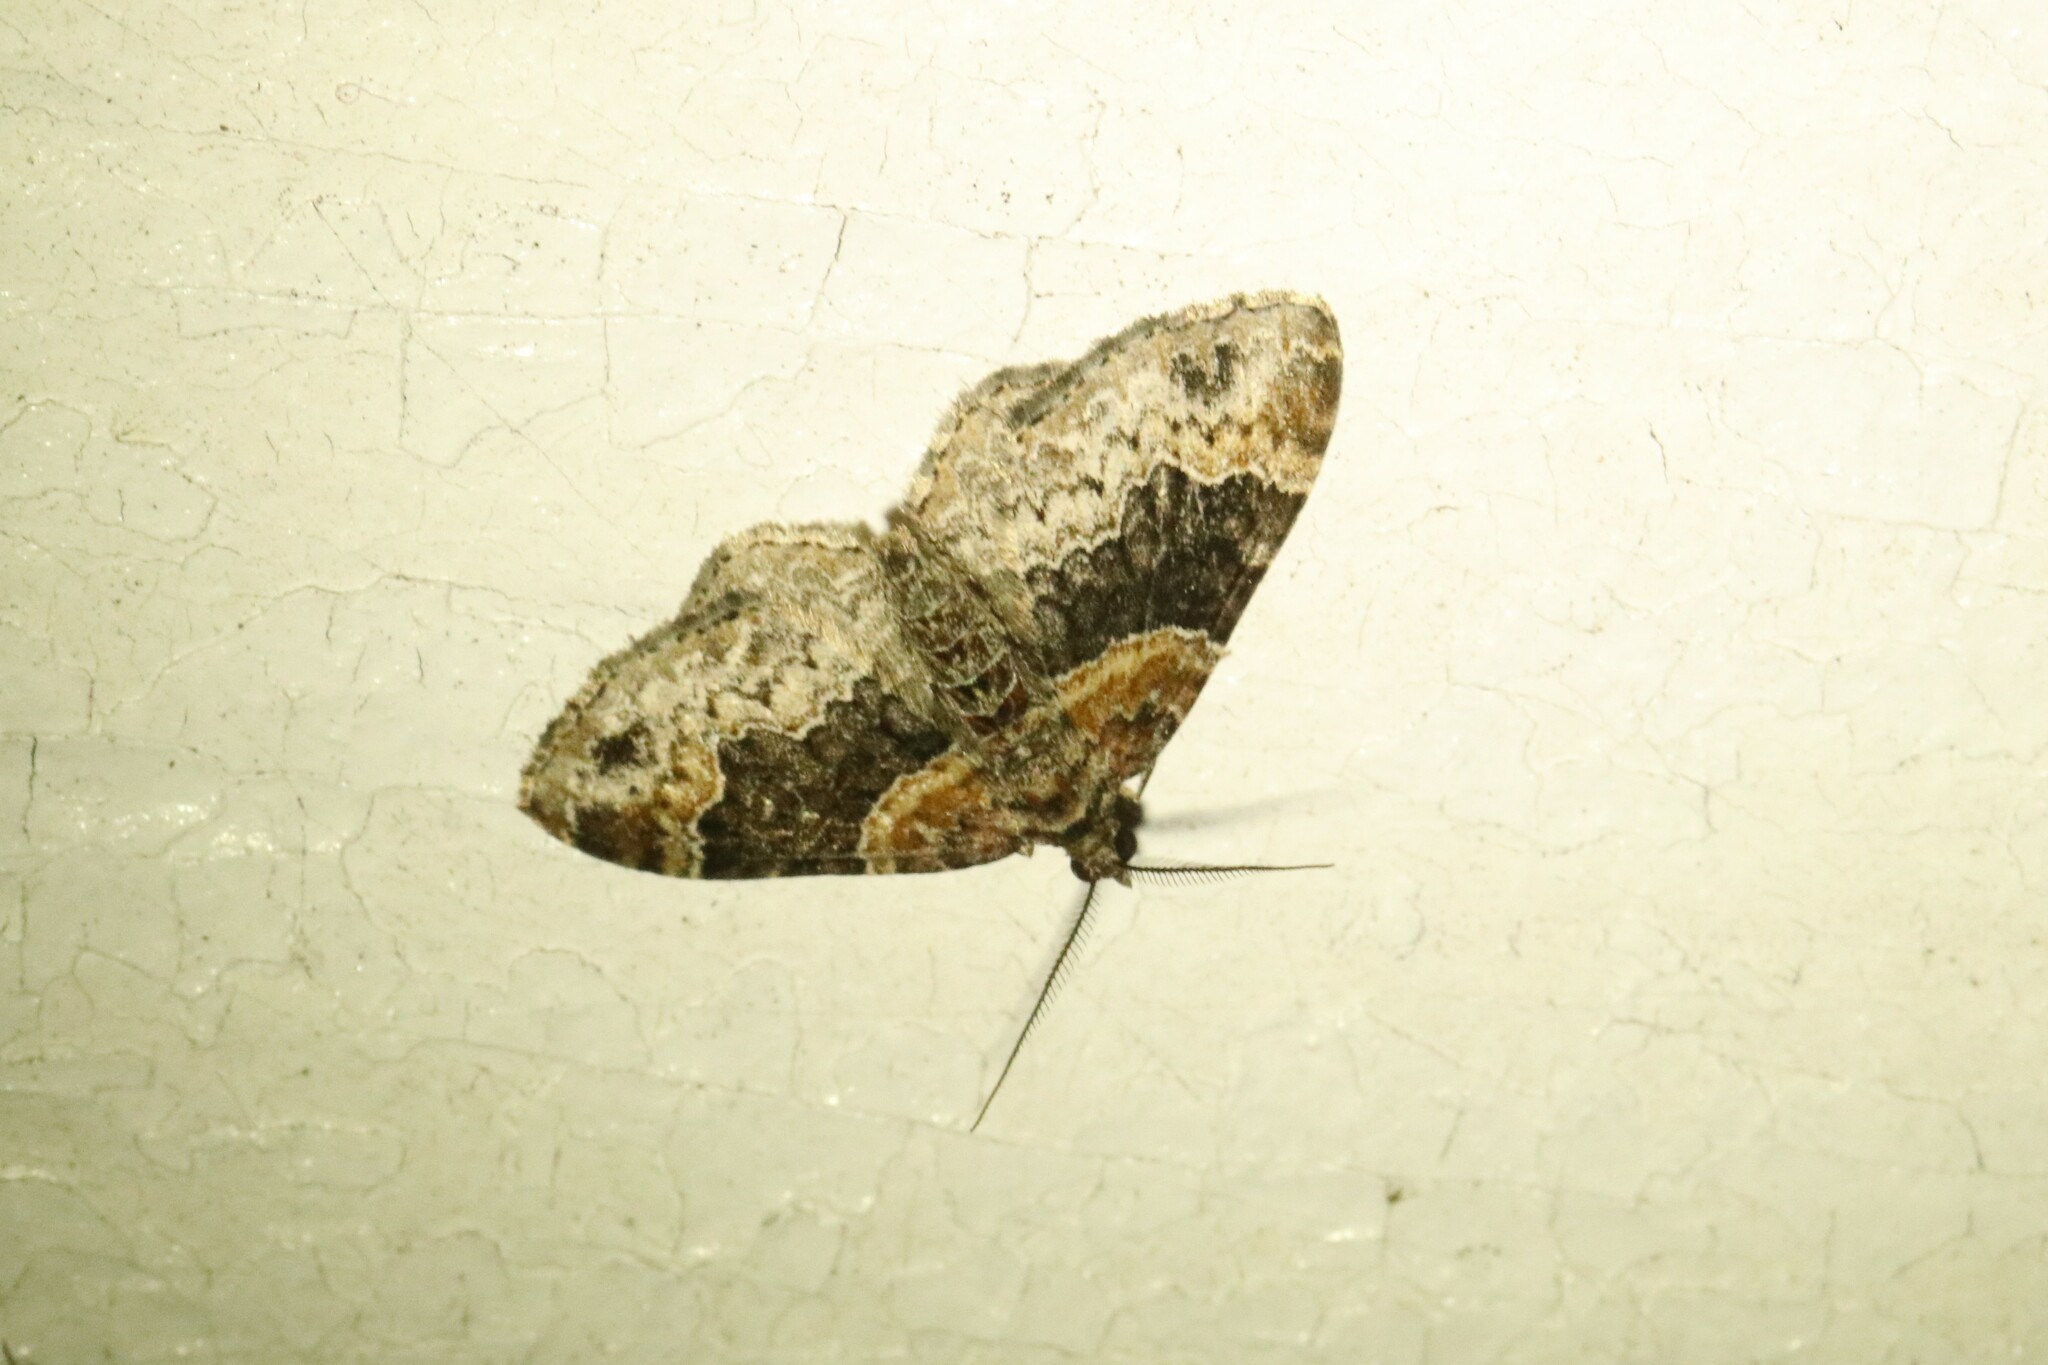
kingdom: Animalia
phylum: Arthropoda
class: Insecta
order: Lepidoptera
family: Geometridae
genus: Xanthorhoe
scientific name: Xanthorhoe ferrugata
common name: Dark-barred twin-spot carpet
